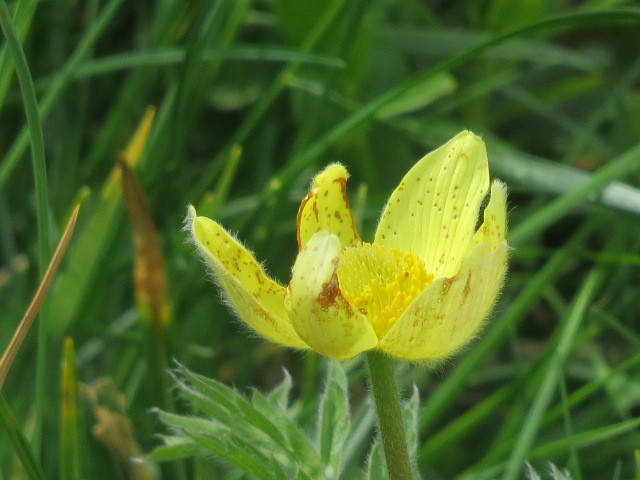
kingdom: Plantae
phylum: Tracheophyta
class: Magnoliopsida
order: Ranunculales
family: Ranunculaceae
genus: Pulsatilla
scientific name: Pulsatilla alpina
